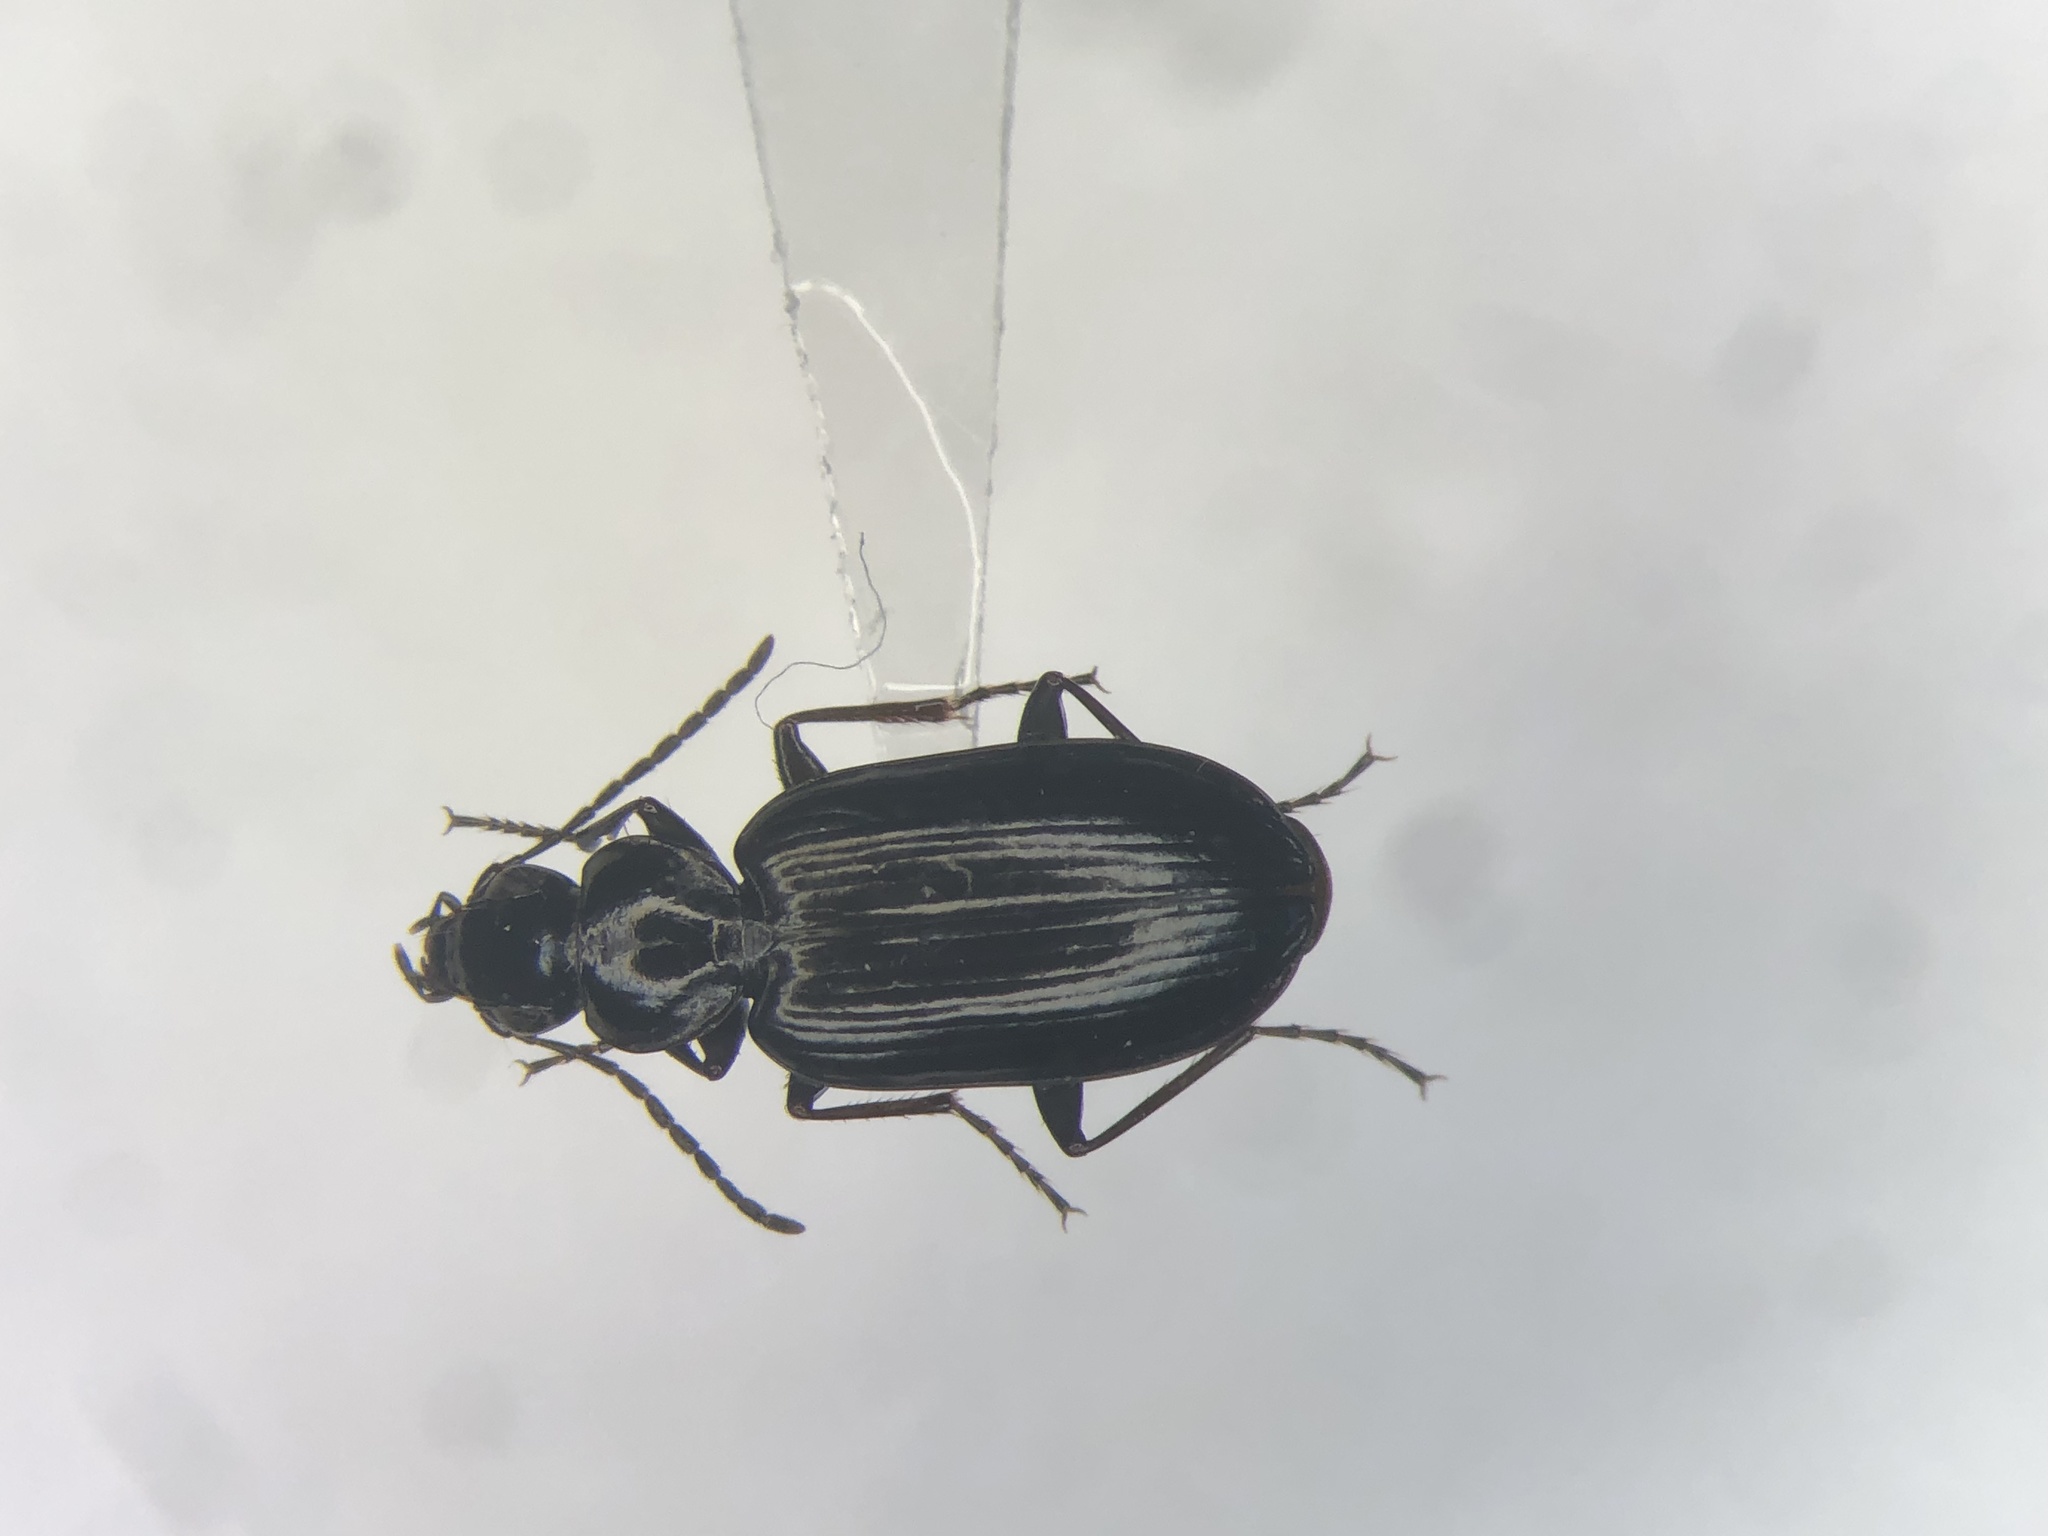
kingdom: Animalia
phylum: Arthropoda
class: Insecta
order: Coleoptera
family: Carabidae
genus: Sericoda
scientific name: Sericoda obsoleta
